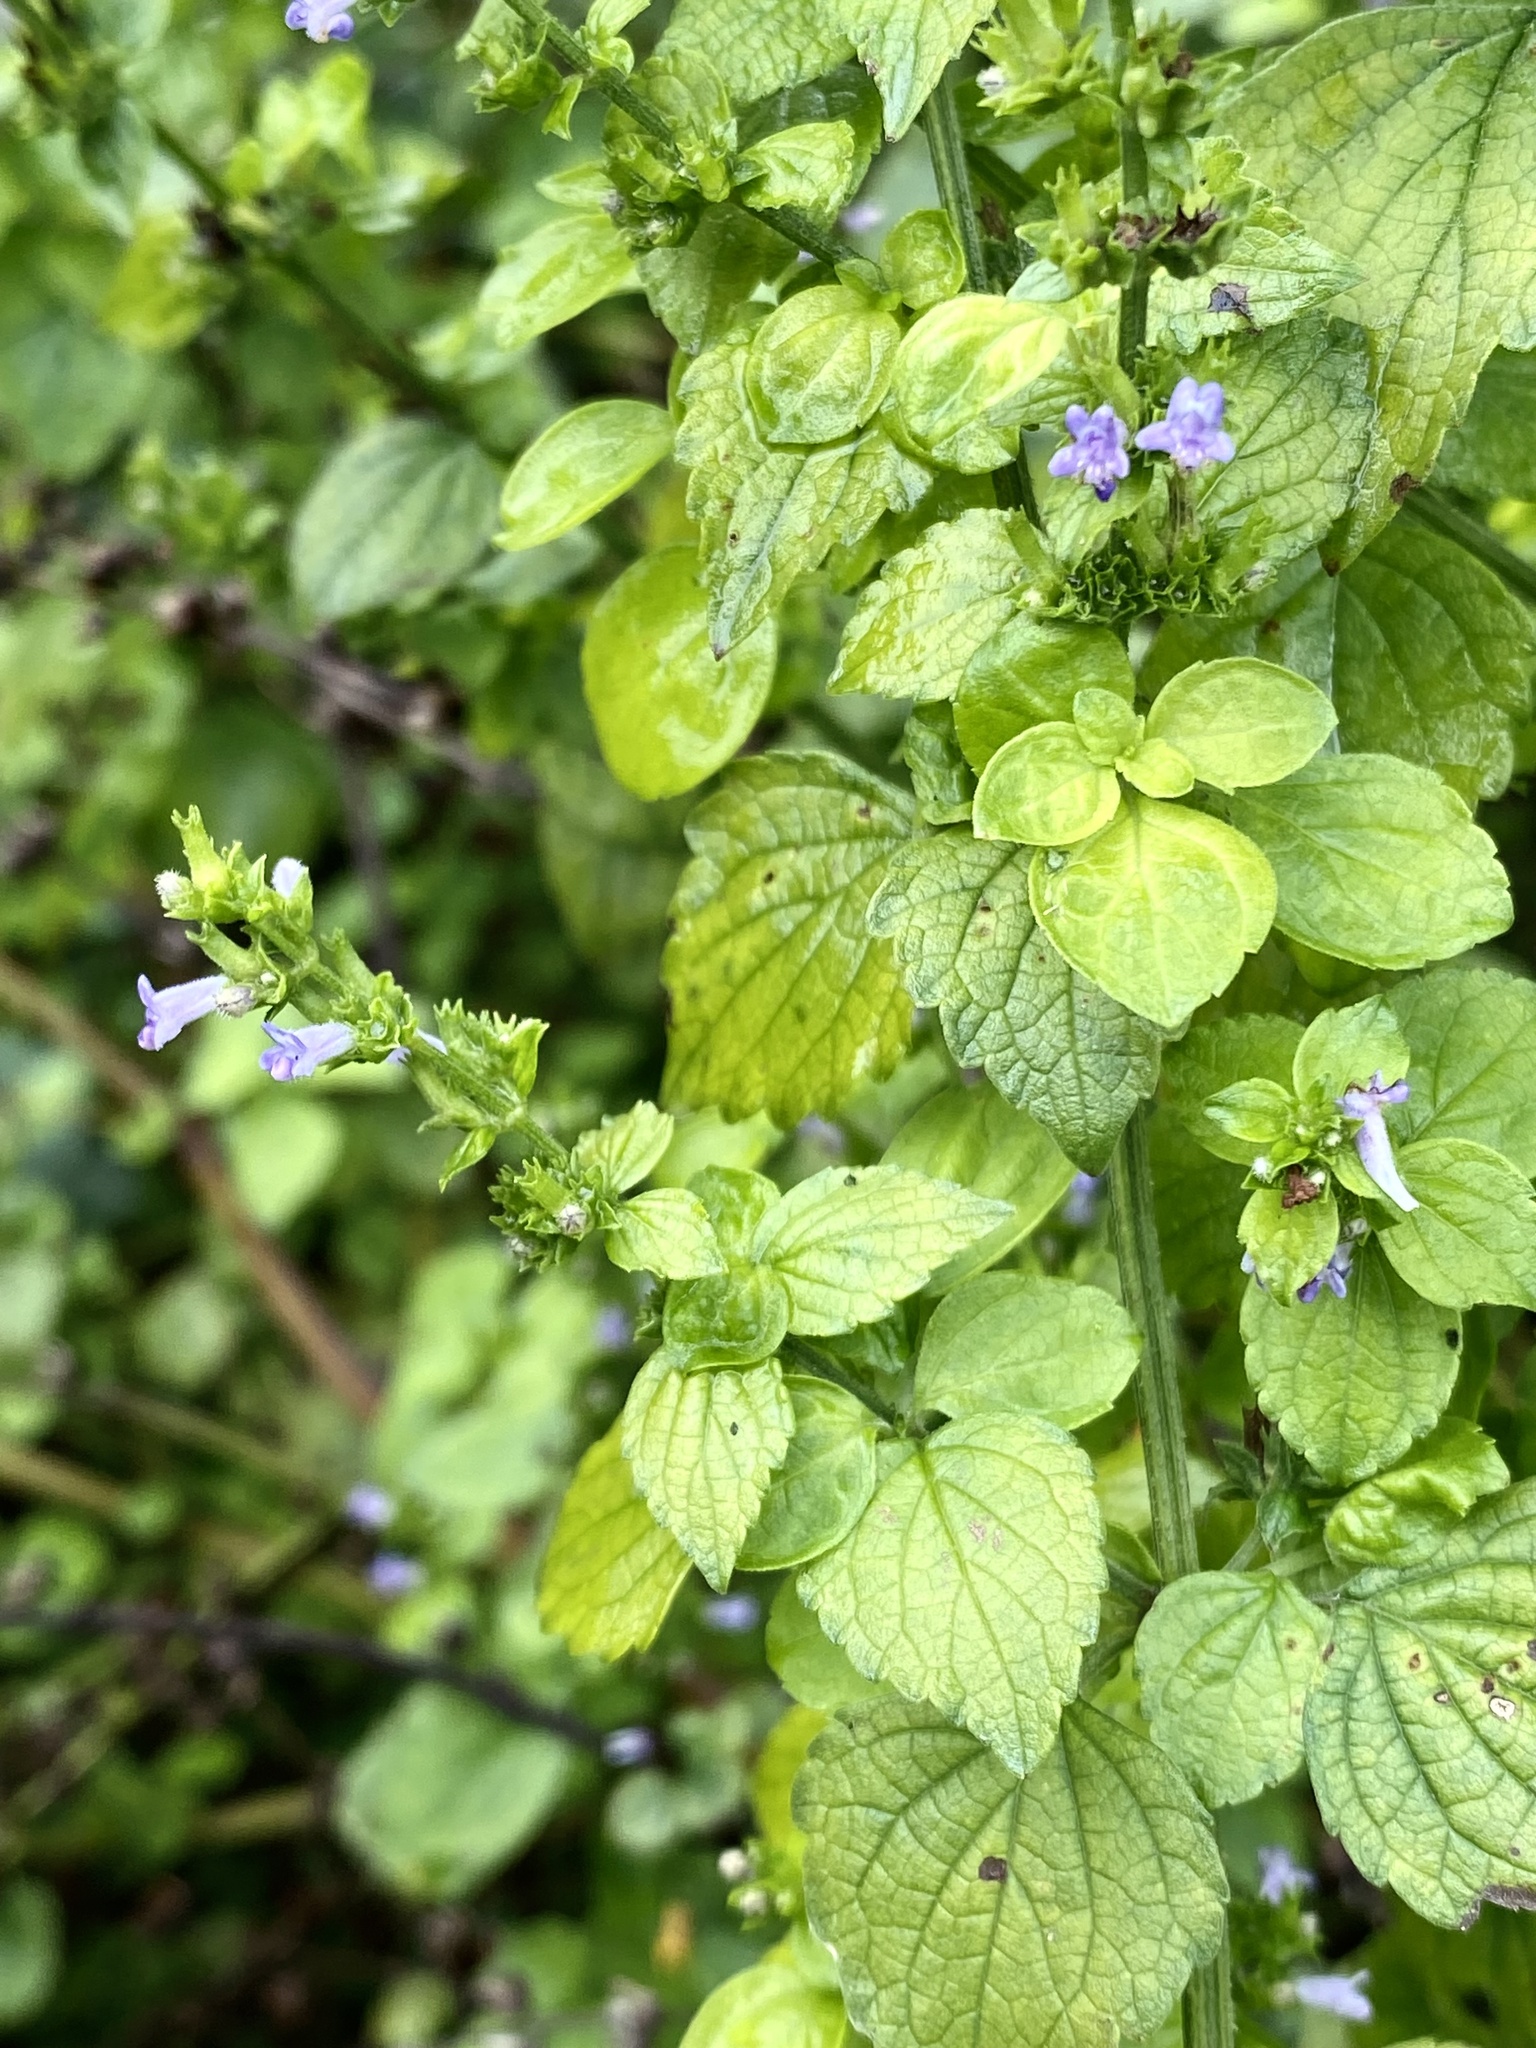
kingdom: Plantae
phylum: Tracheophyta
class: Magnoliopsida
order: Lamiales
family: Lamiaceae
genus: Cantinoa
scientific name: Cantinoa mutabilis
